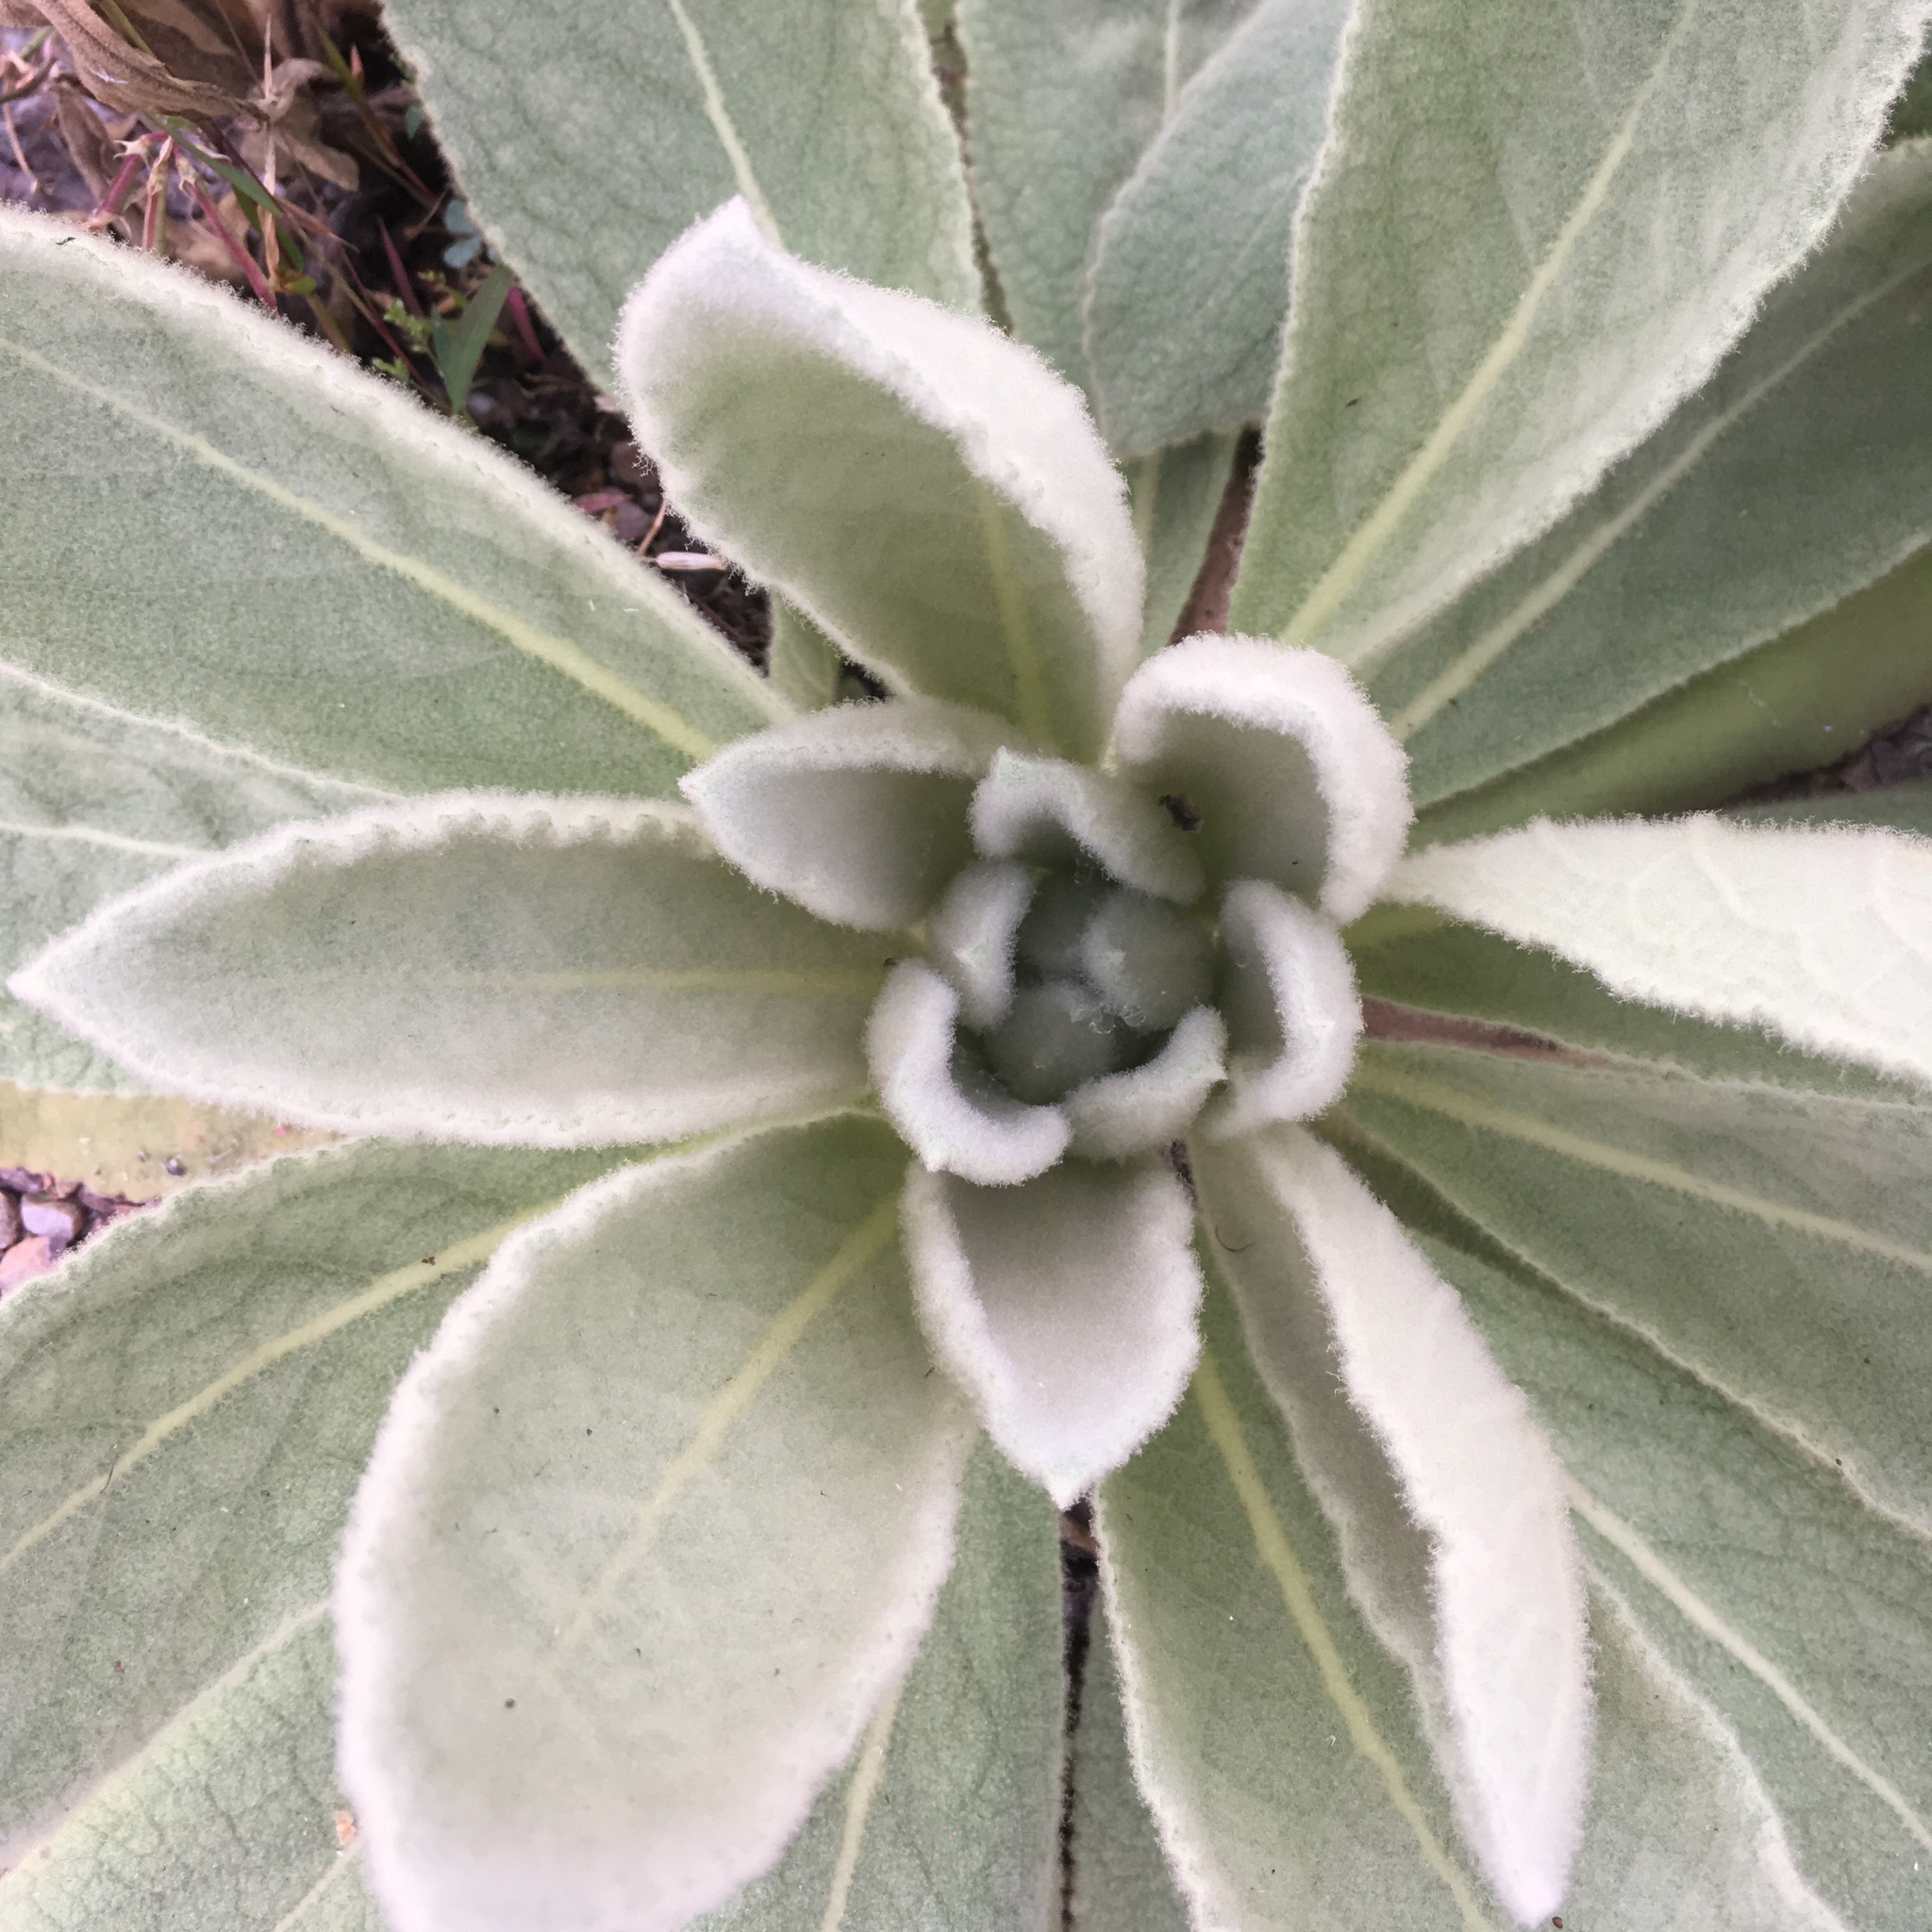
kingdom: Plantae
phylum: Tracheophyta
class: Magnoliopsida
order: Lamiales
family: Scrophulariaceae
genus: Verbascum
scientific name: Verbascum thapsus
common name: Common mullein
